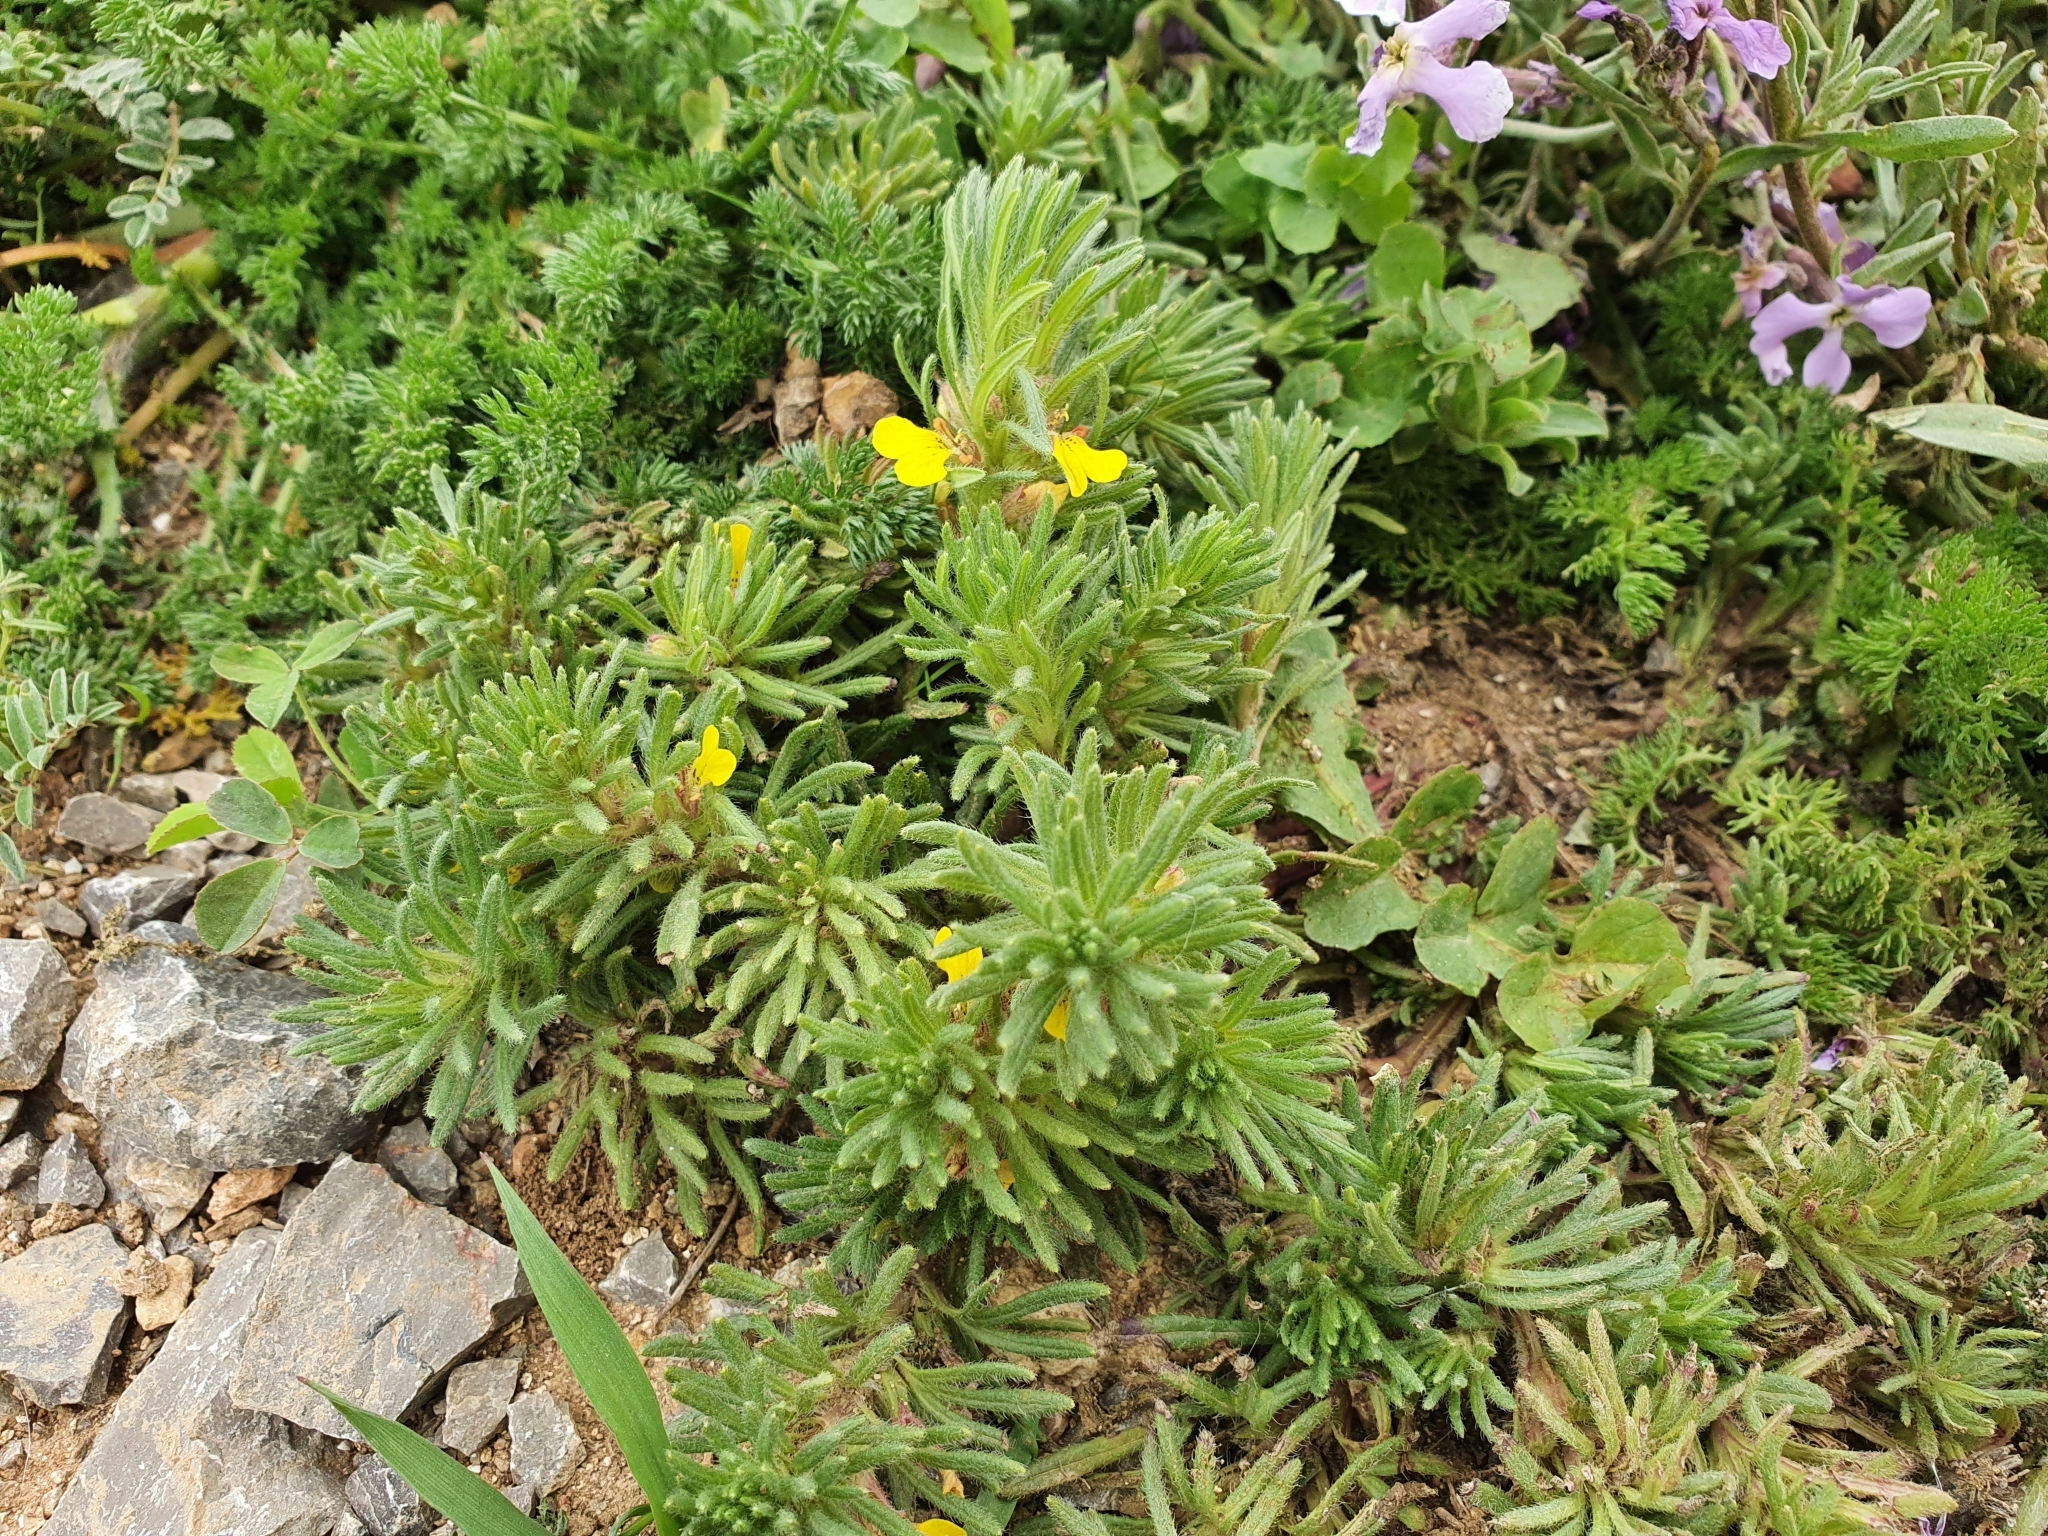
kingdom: Plantae
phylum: Tracheophyta
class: Magnoliopsida
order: Lamiales
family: Lamiaceae
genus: Ajuga
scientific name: Ajuga chamaepitys
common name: Ground-pine
